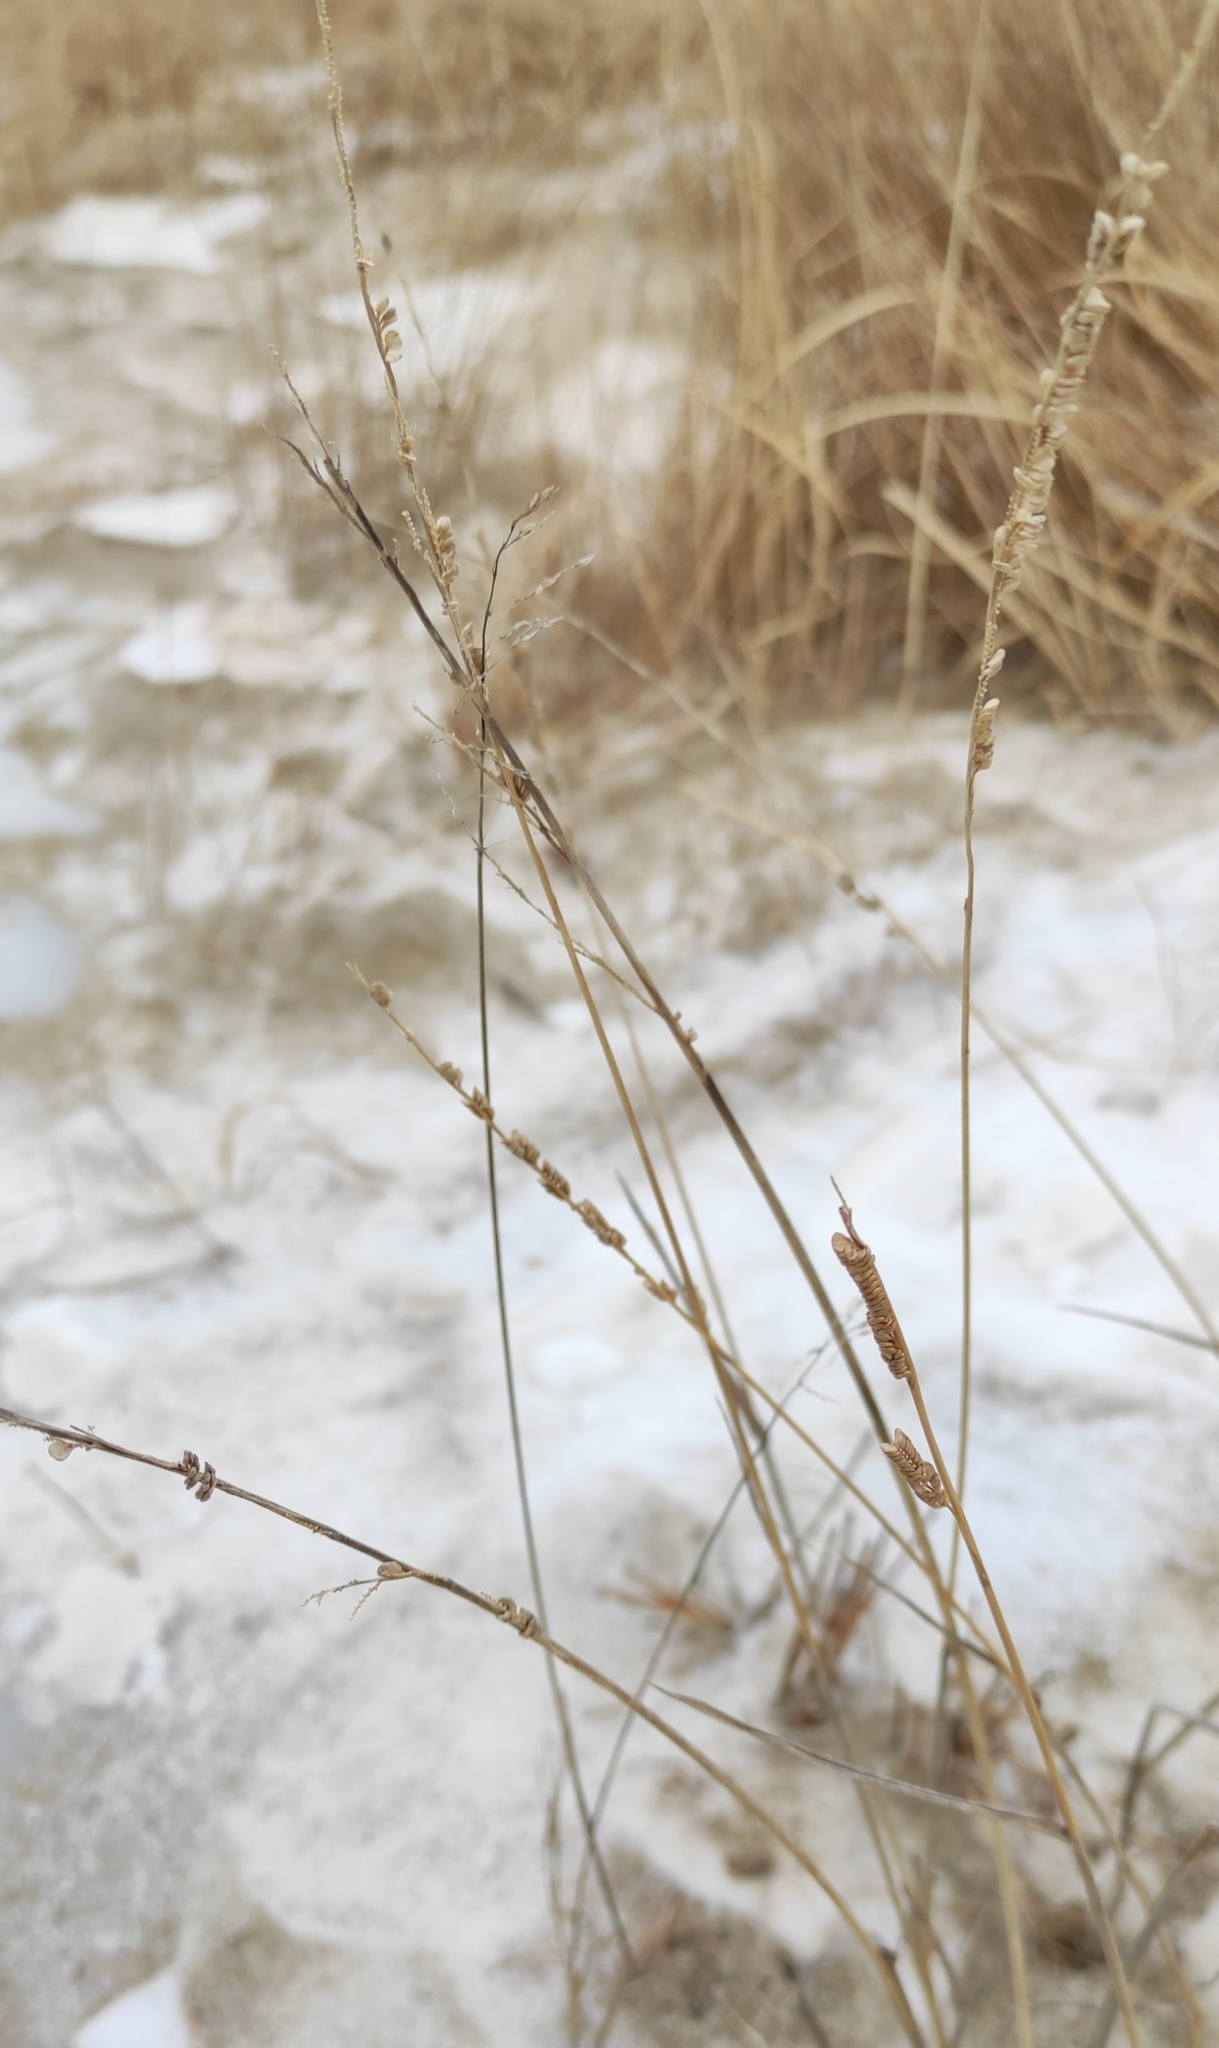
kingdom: Plantae
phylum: Tracheophyta
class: Liliopsida
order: Poales
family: Poaceae
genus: Beckmannia
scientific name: Beckmannia syzigachne
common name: American slough-grass
